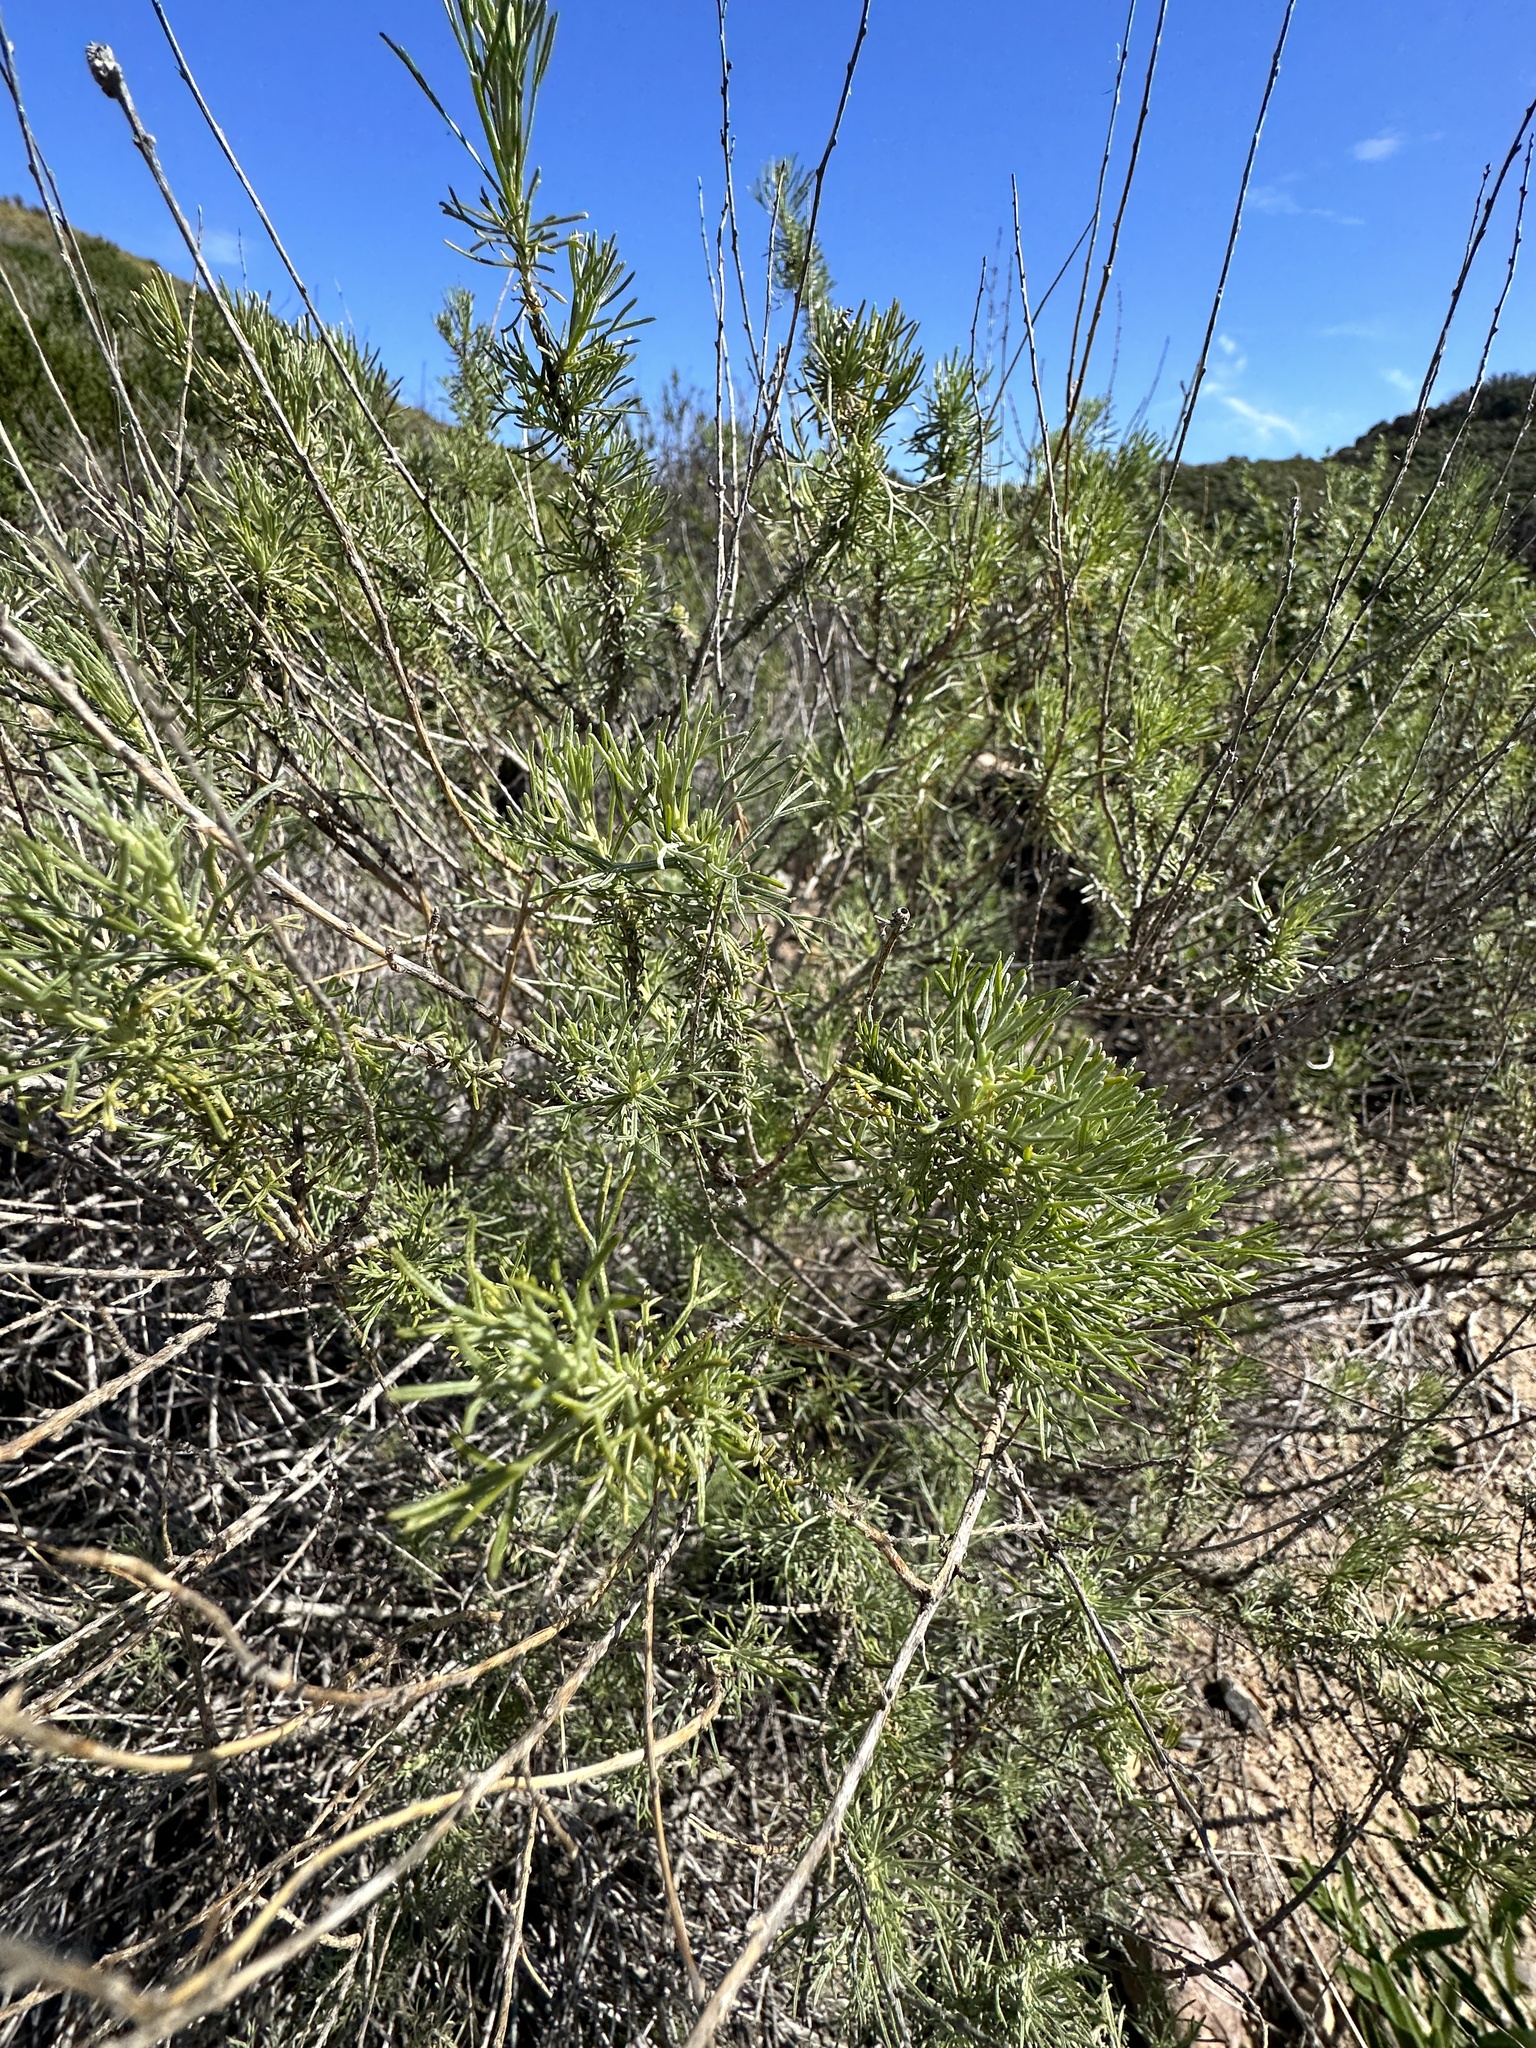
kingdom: Plantae
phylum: Tracheophyta
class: Magnoliopsida
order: Asterales
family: Asteraceae
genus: Artemisia
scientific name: Artemisia californica
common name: California sagebrush
